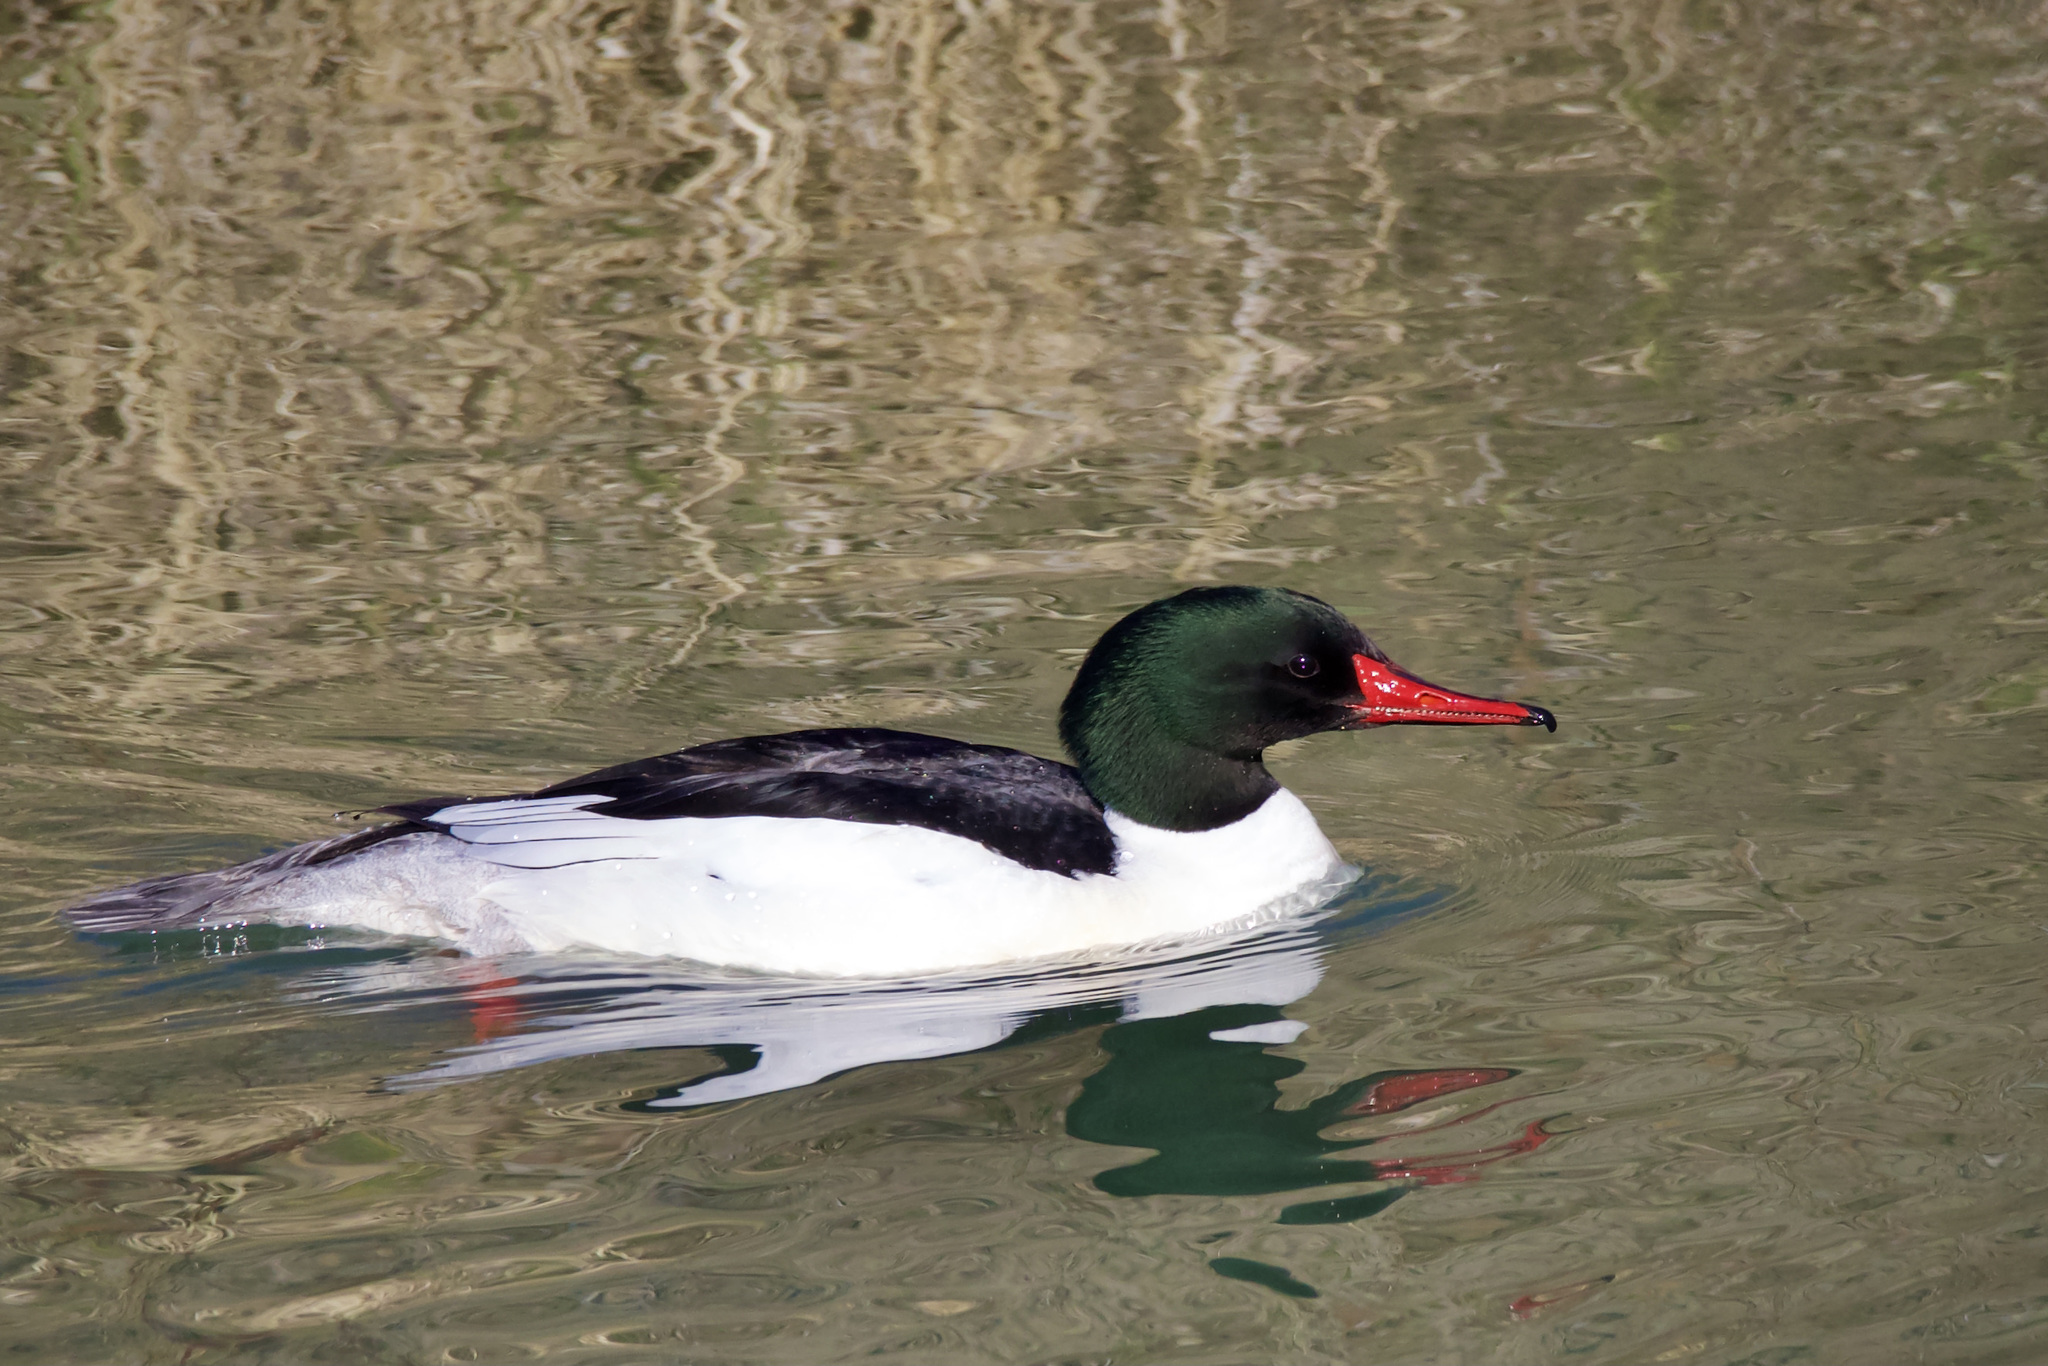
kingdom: Animalia
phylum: Chordata
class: Aves
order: Anseriformes
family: Anatidae
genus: Mergus
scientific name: Mergus merganser
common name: Common merganser
